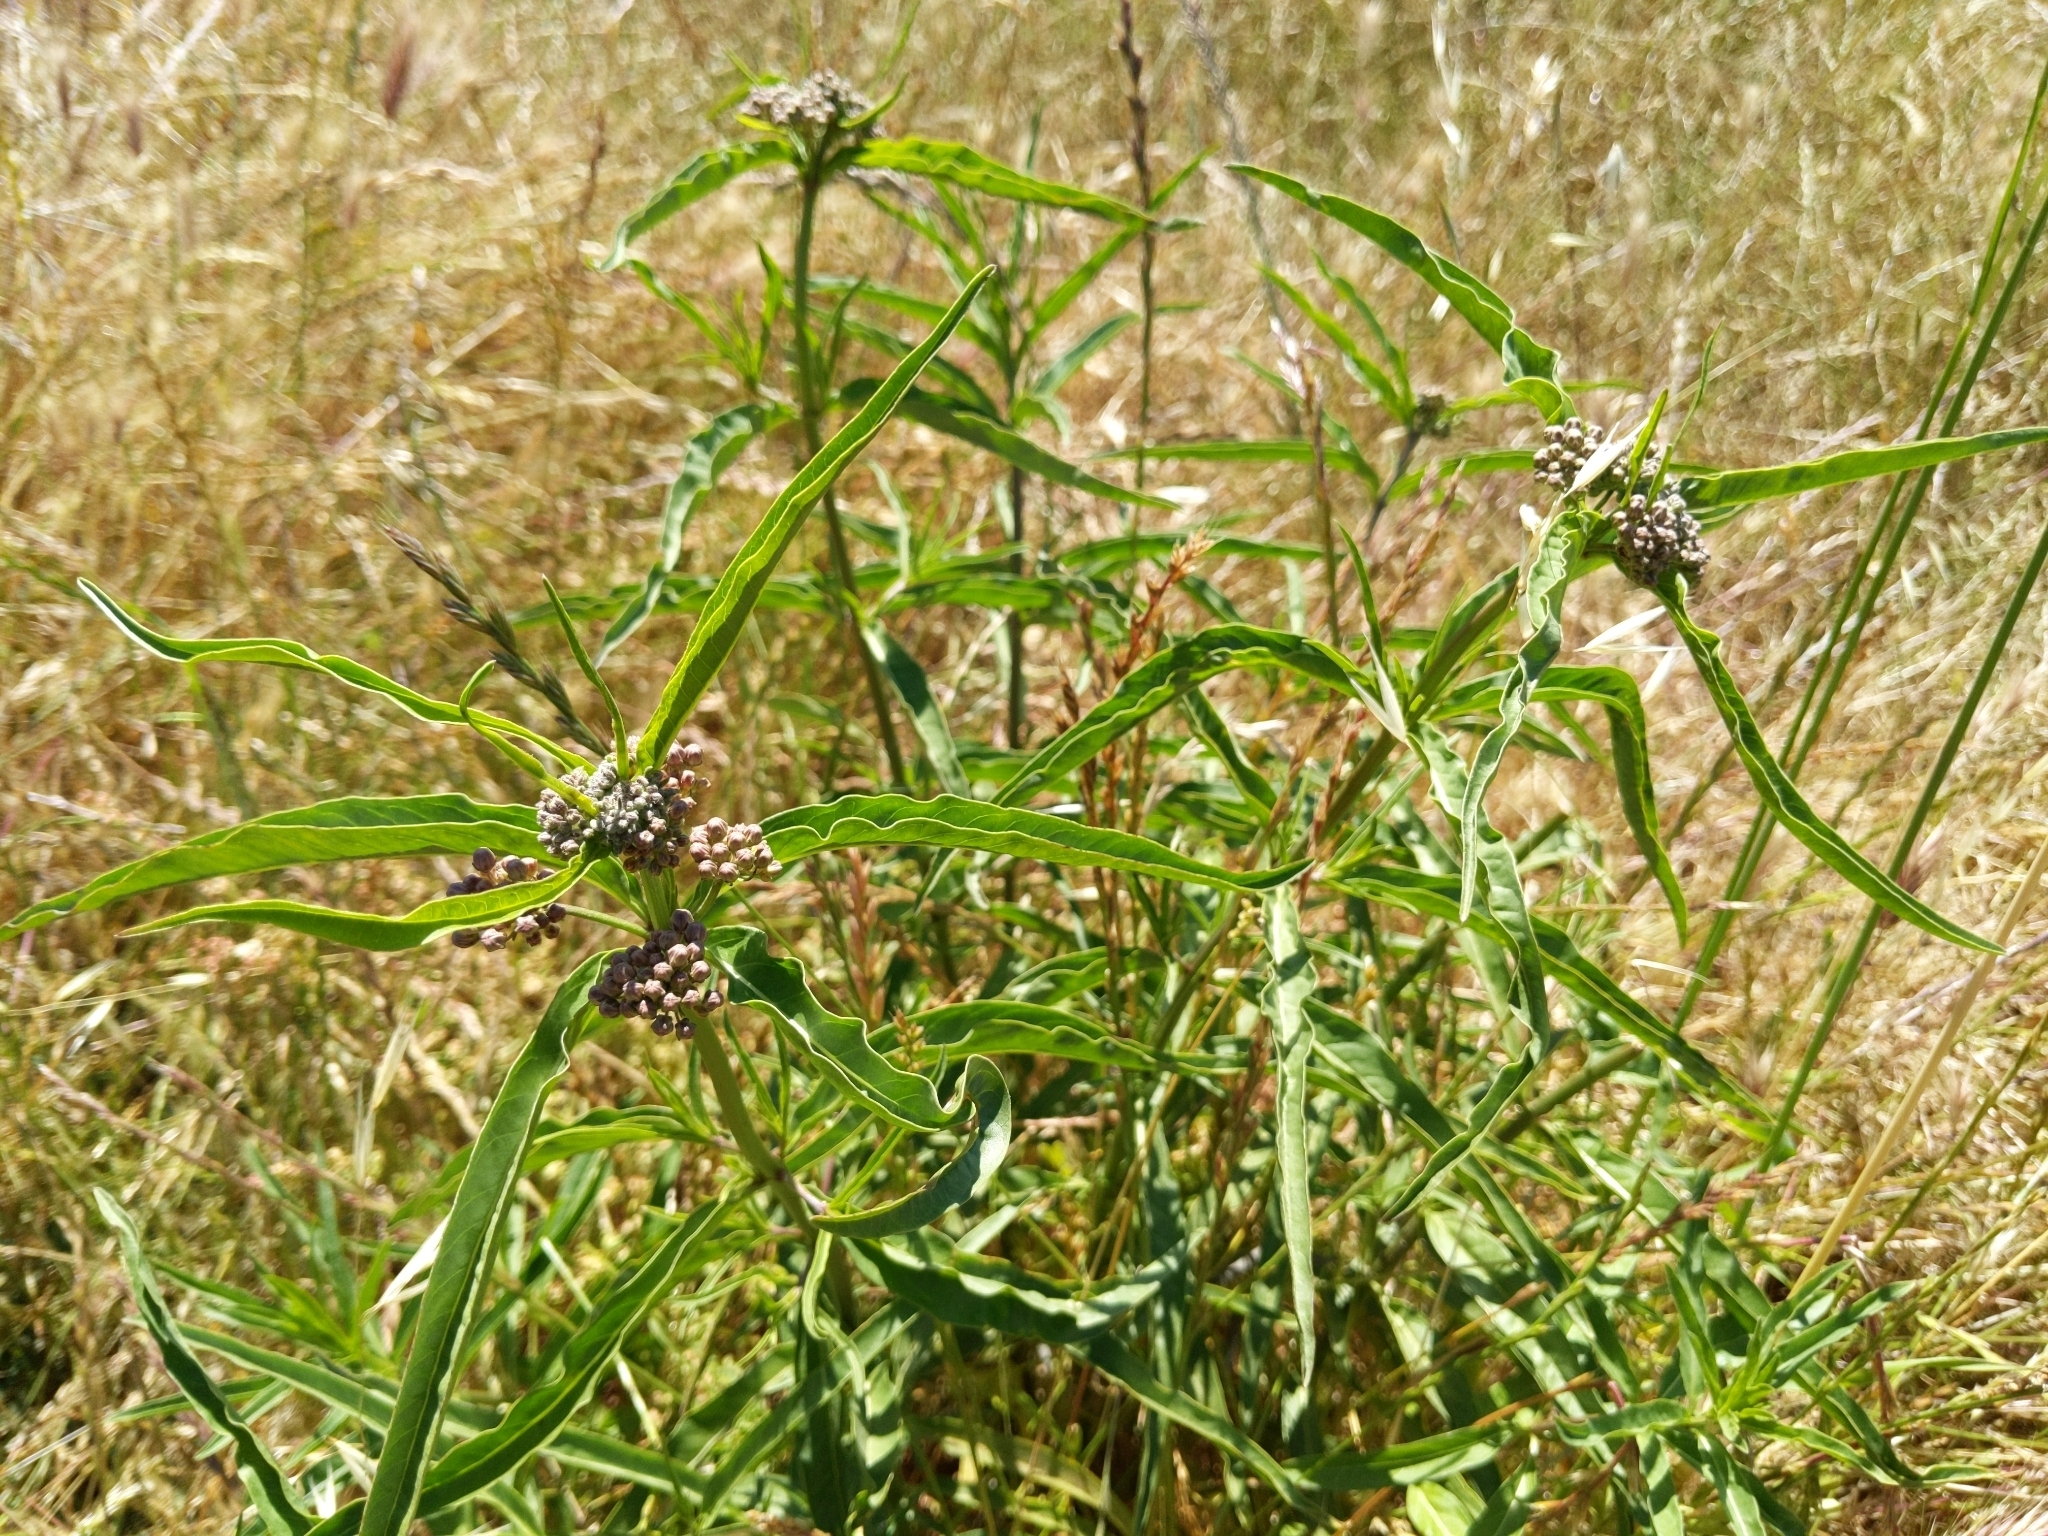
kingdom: Plantae
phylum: Tracheophyta
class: Magnoliopsida
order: Gentianales
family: Apocynaceae
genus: Asclepias
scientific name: Asclepias fascicularis
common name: Mexican milkweed
